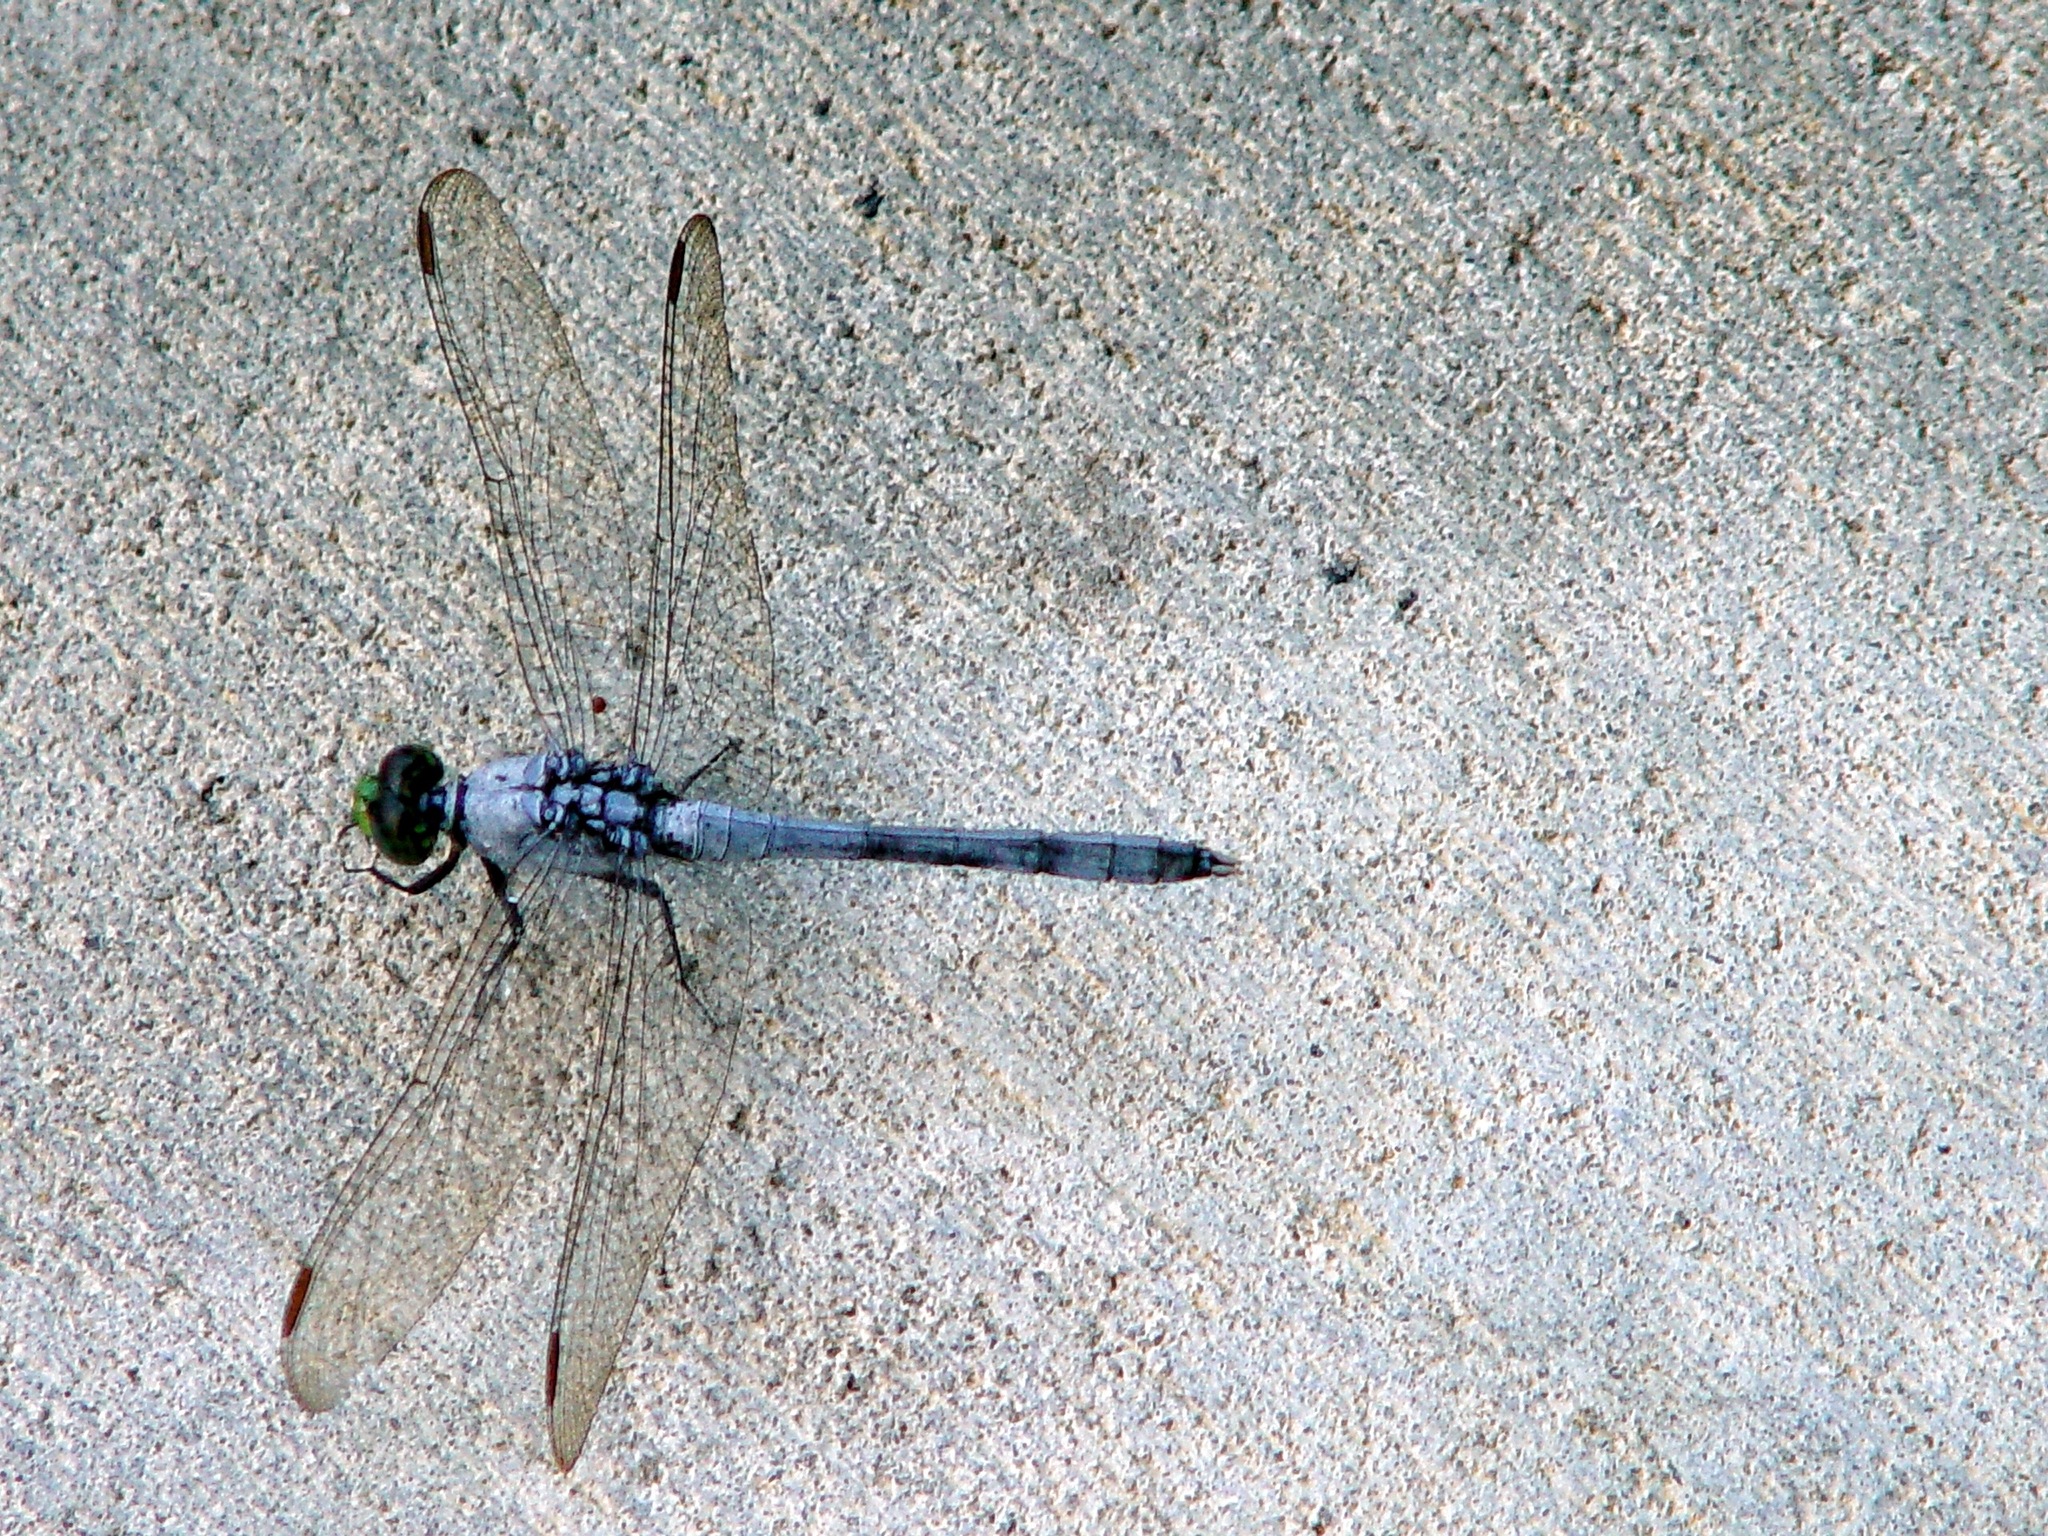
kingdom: Animalia
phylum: Arthropoda
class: Insecta
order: Odonata
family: Libellulidae
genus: Erythemis
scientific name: Erythemis simplicicollis
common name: Eastern pondhawk
